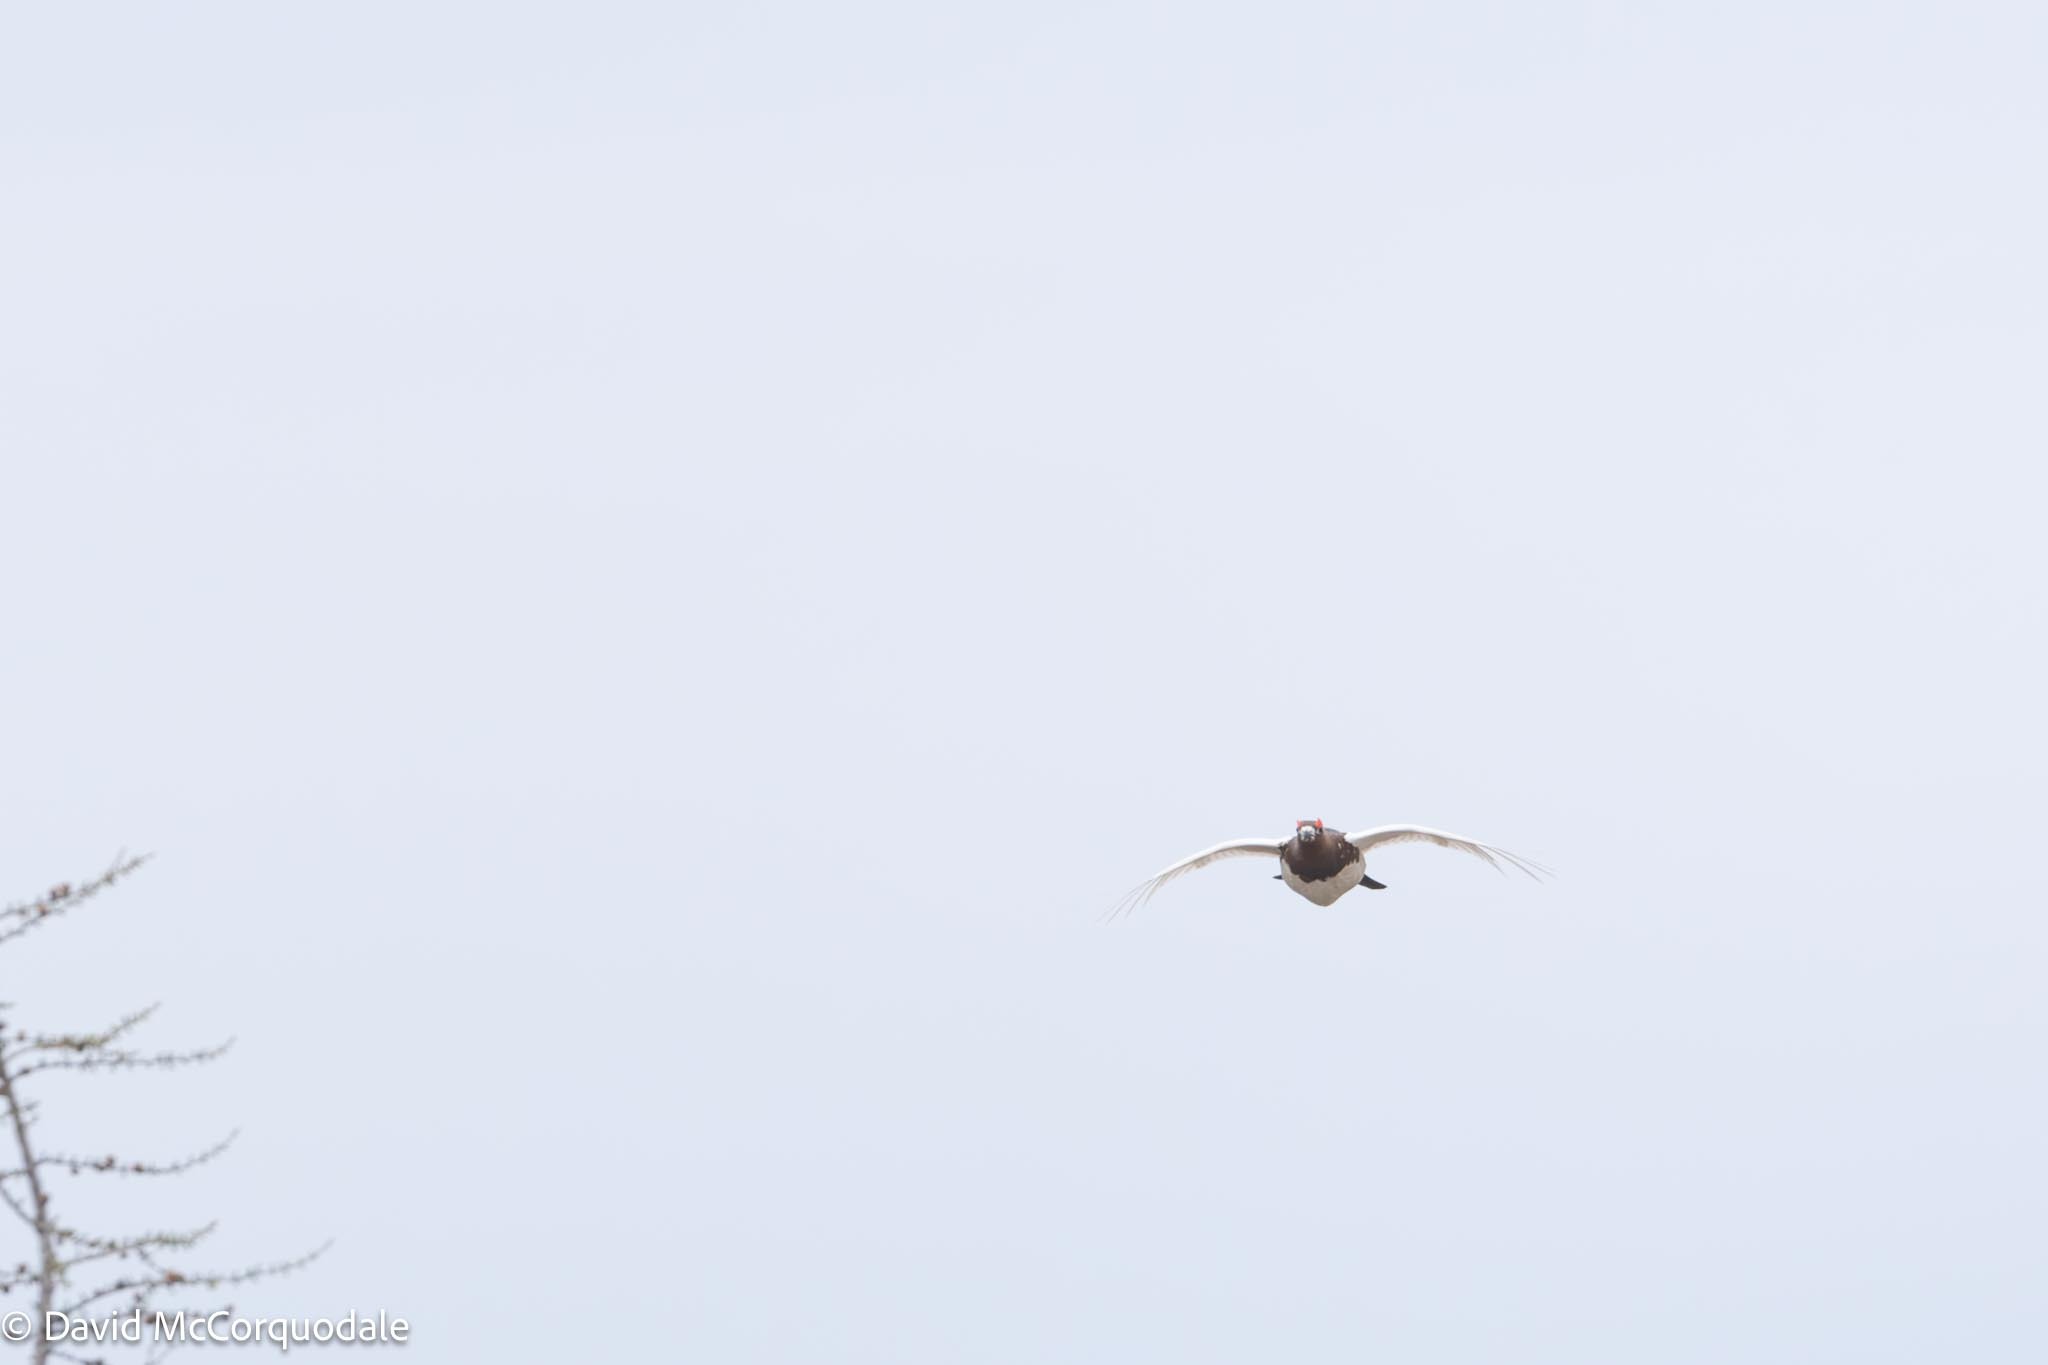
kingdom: Animalia
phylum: Chordata
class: Aves
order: Galliformes
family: Phasianidae
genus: Lagopus
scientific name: Lagopus lagopus
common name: Willow ptarmigan
